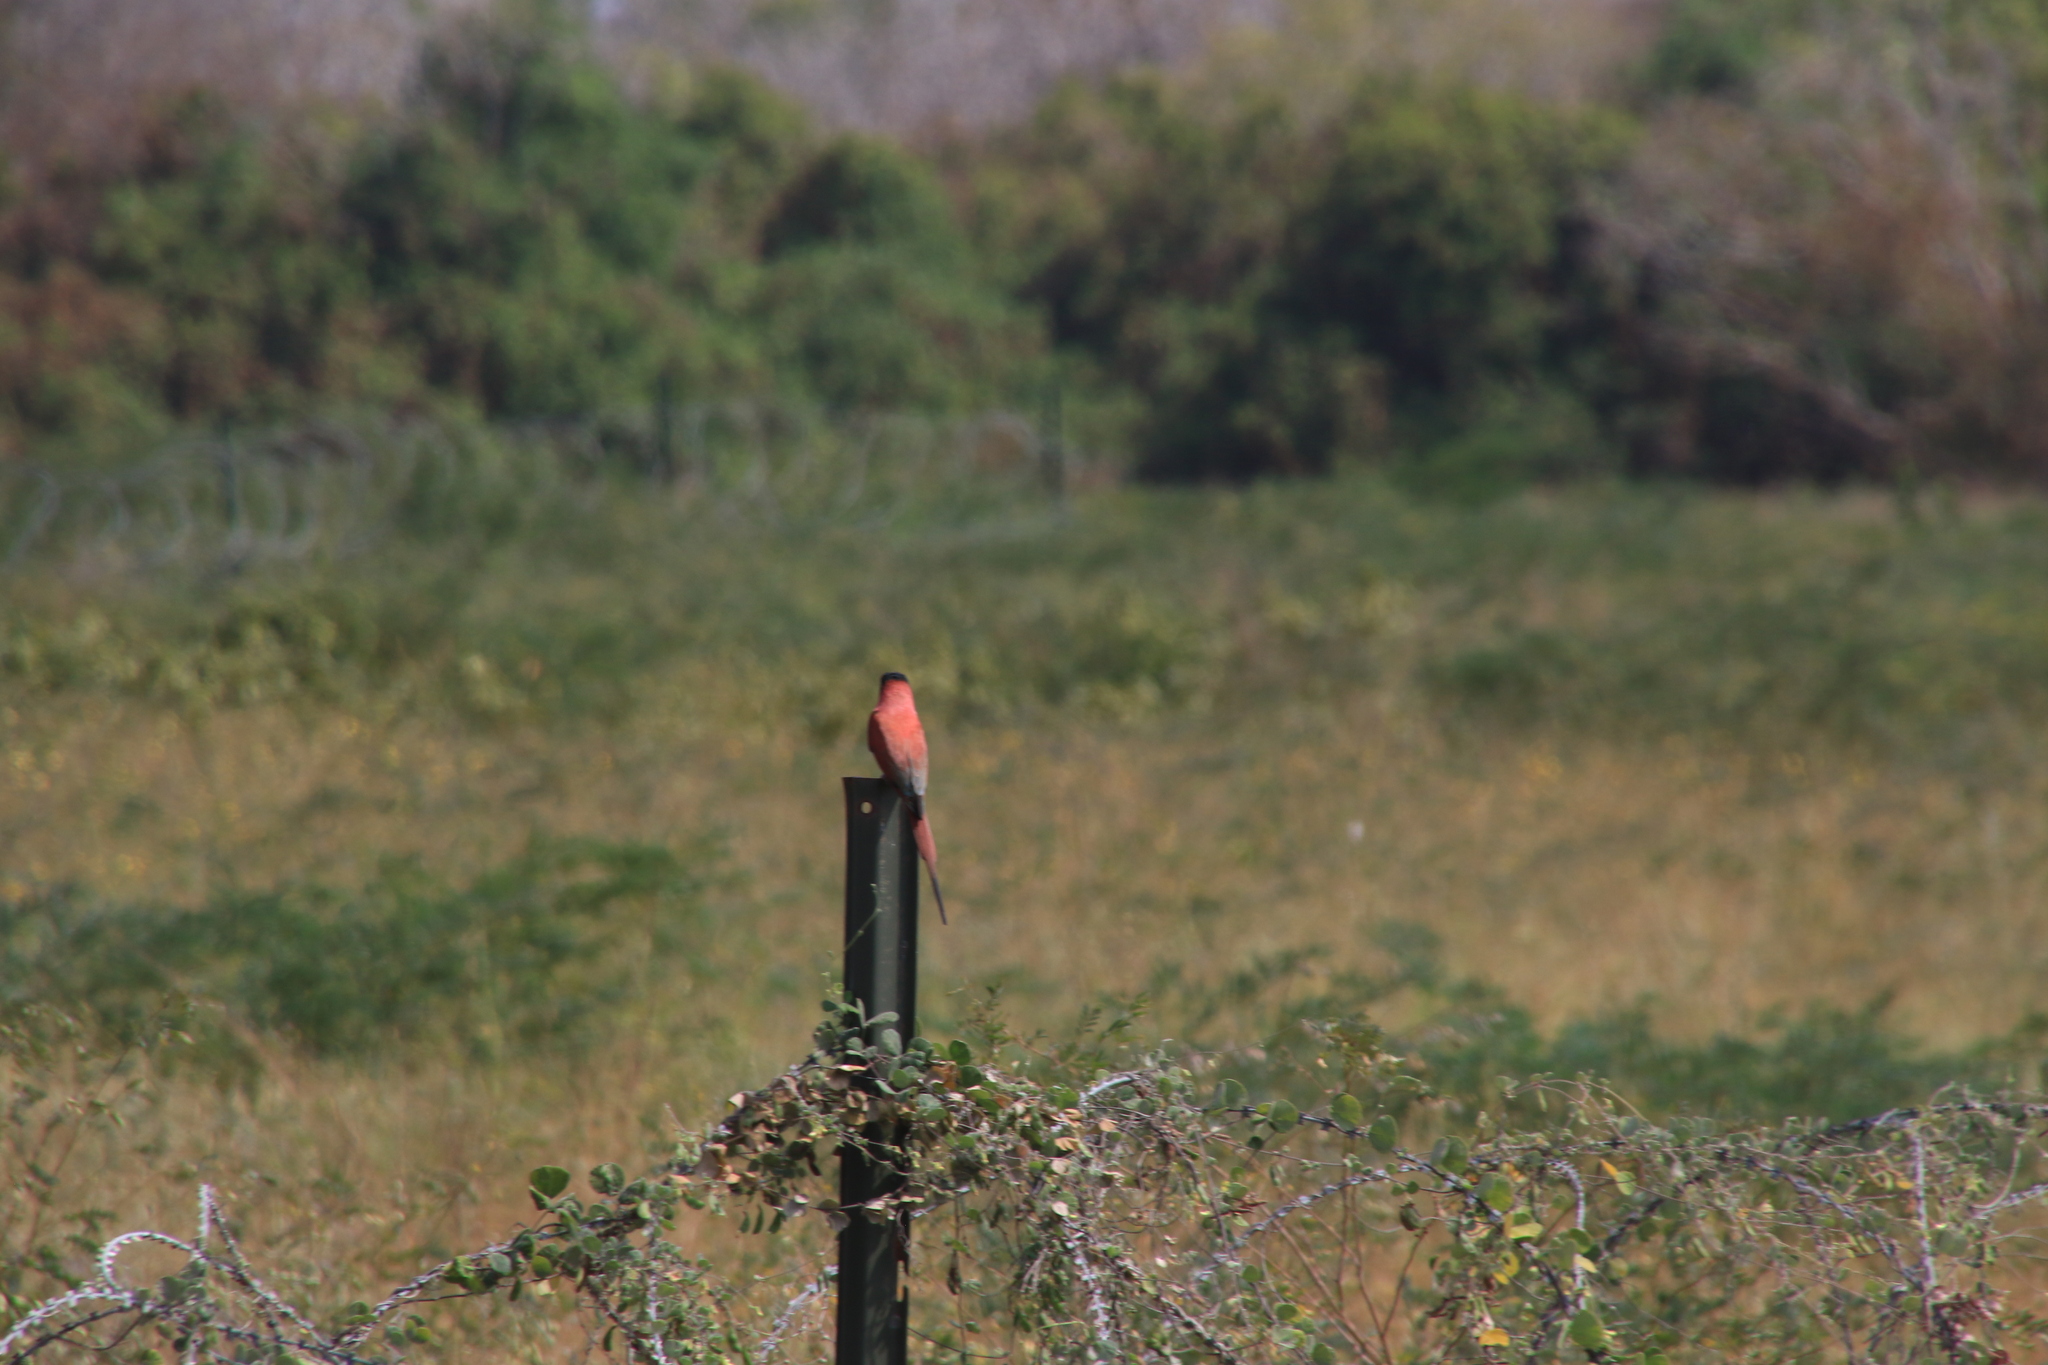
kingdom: Animalia
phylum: Chordata
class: Aves
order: Coraciiformes
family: Meropidae
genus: Merops
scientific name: Merops nubicus
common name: Northern carmine bee-eater
